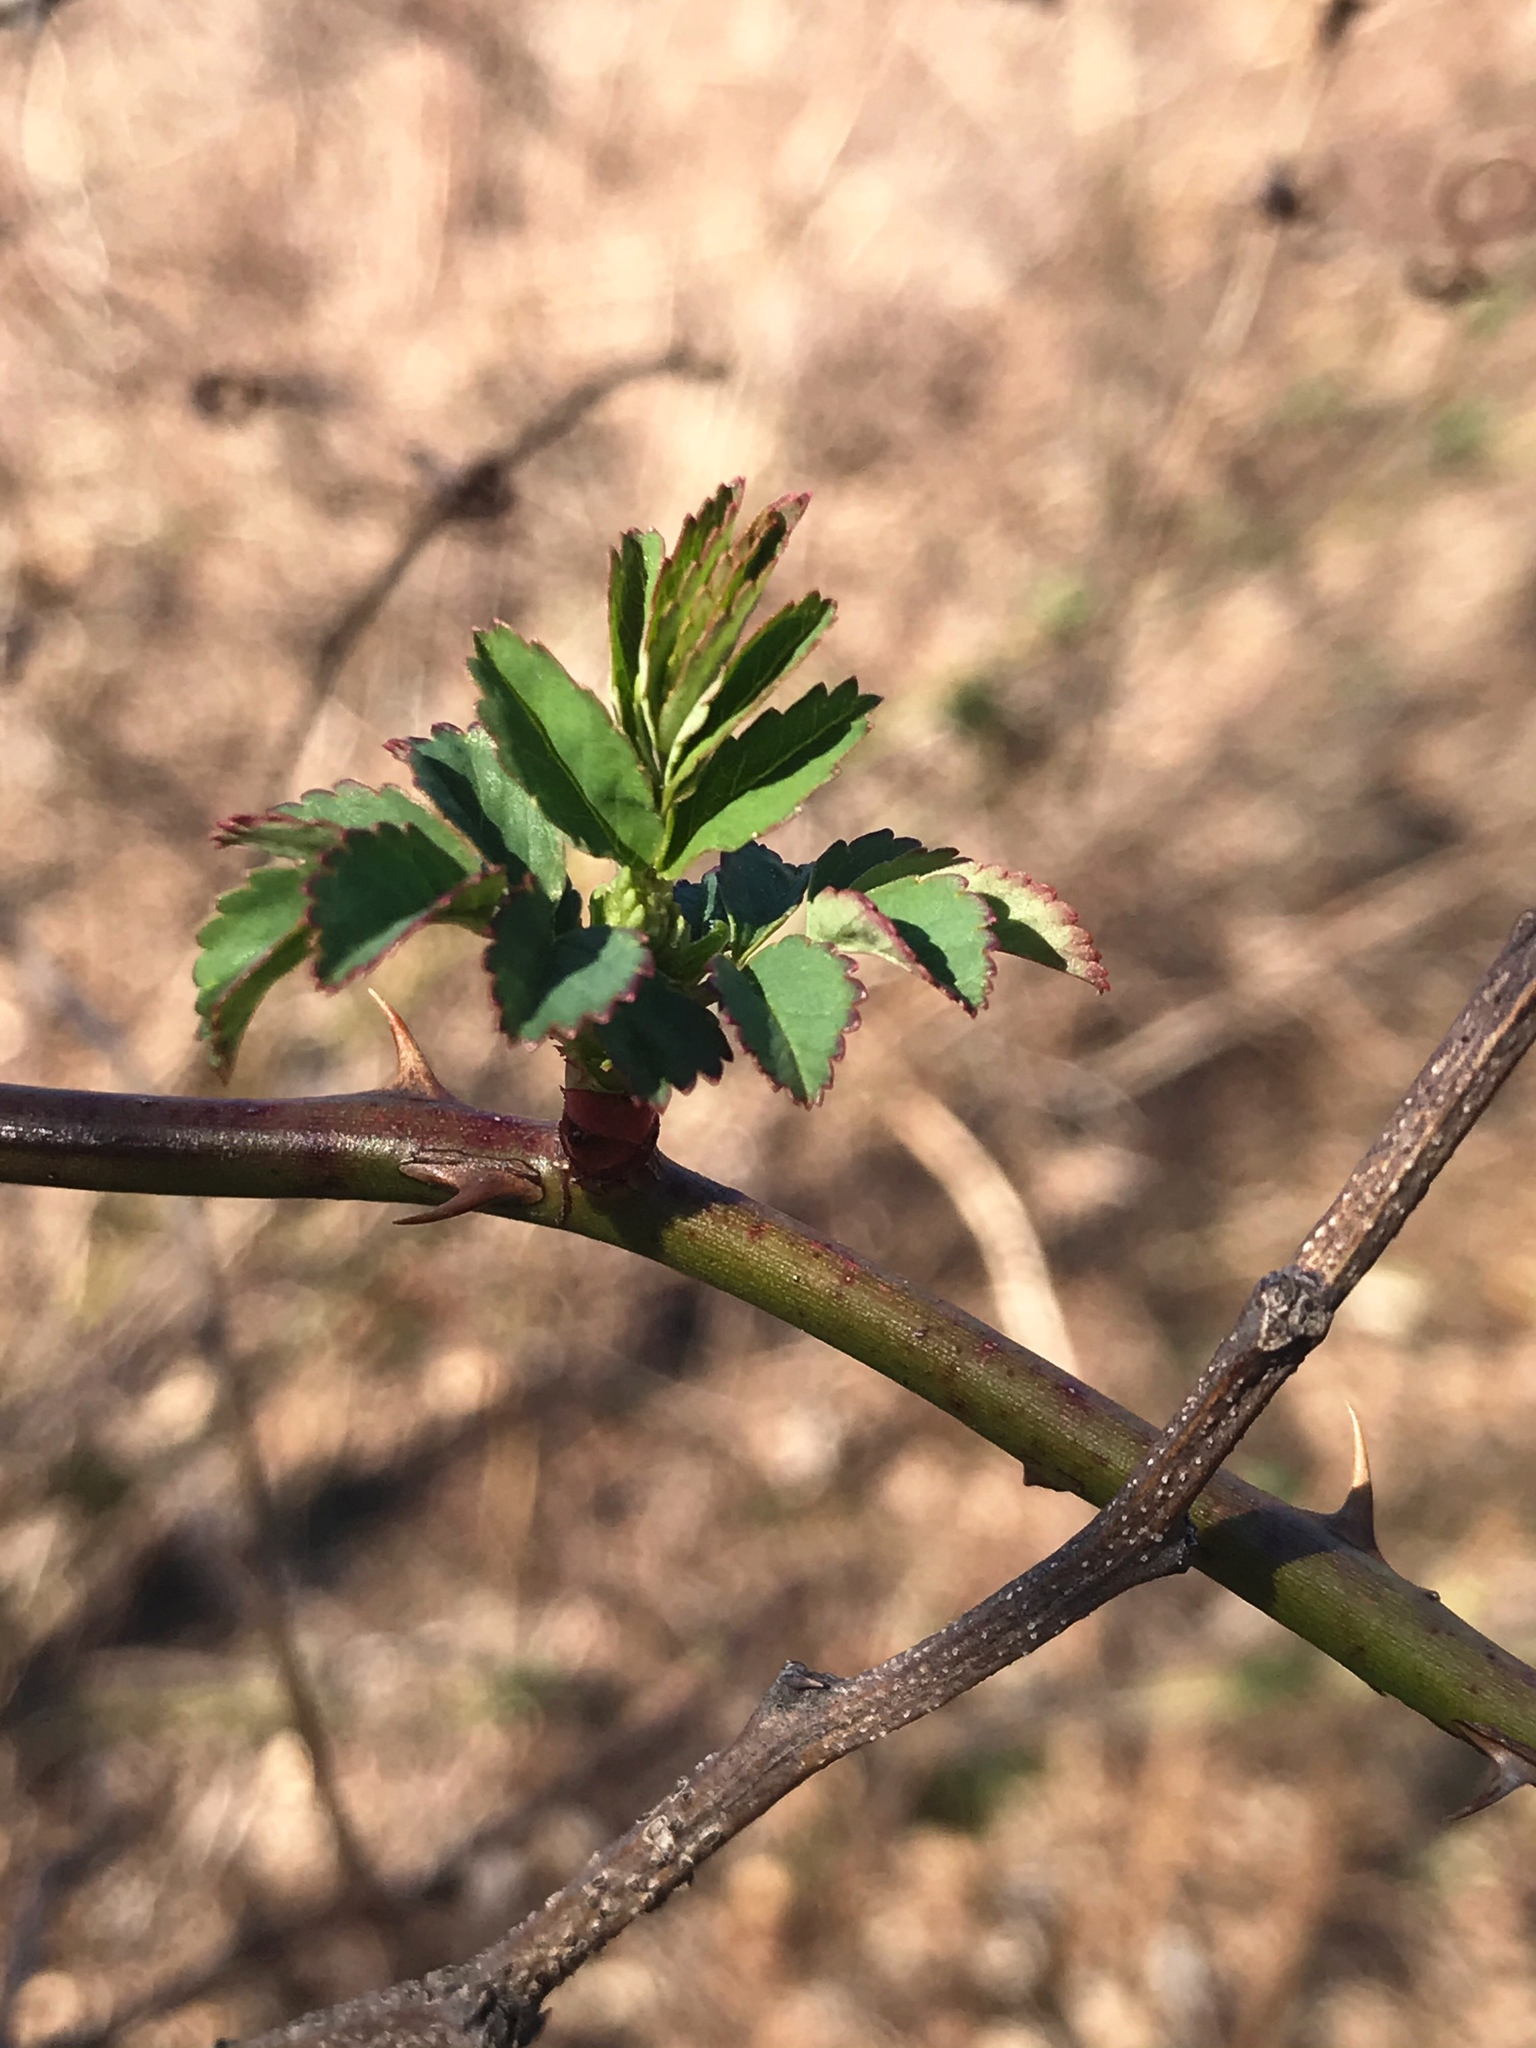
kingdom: Plantae
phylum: Tracheophyta
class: Magnoliopsida
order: Rosales
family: Rosaceae
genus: Rosa
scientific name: Rosa multiflora
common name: Multiflora rose
